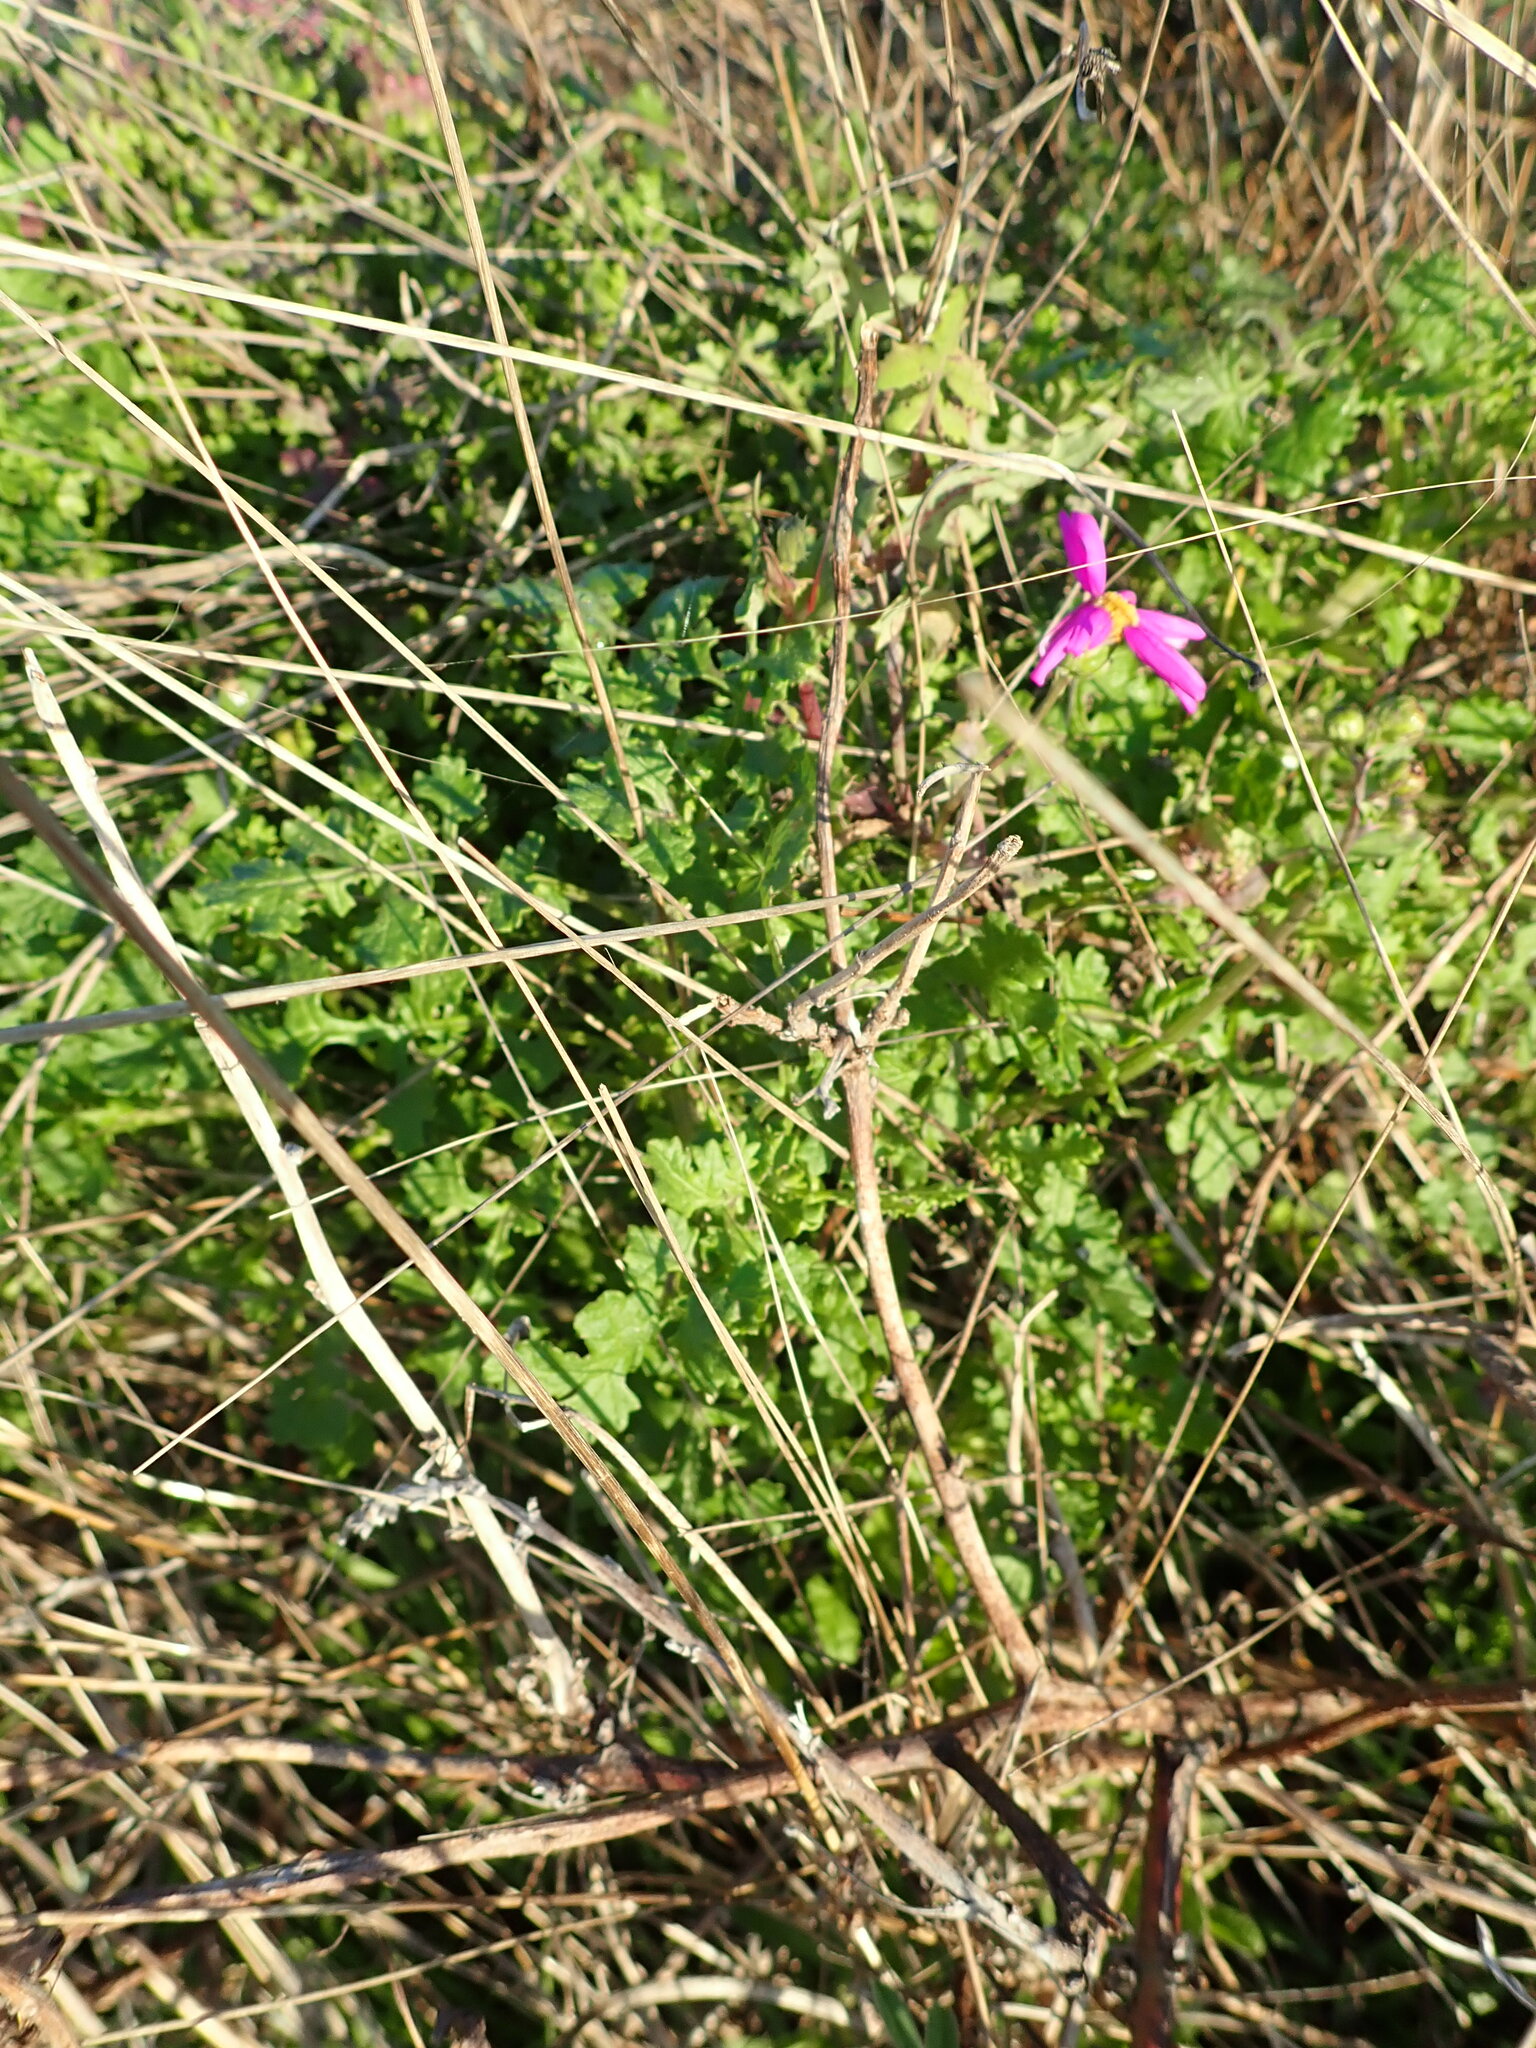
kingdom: Plantae
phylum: Tracheophyta
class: Magnoliopsida
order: Asterales
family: Asteraceae
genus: Senecio
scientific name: Senecio elegans
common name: Purple groundsel
